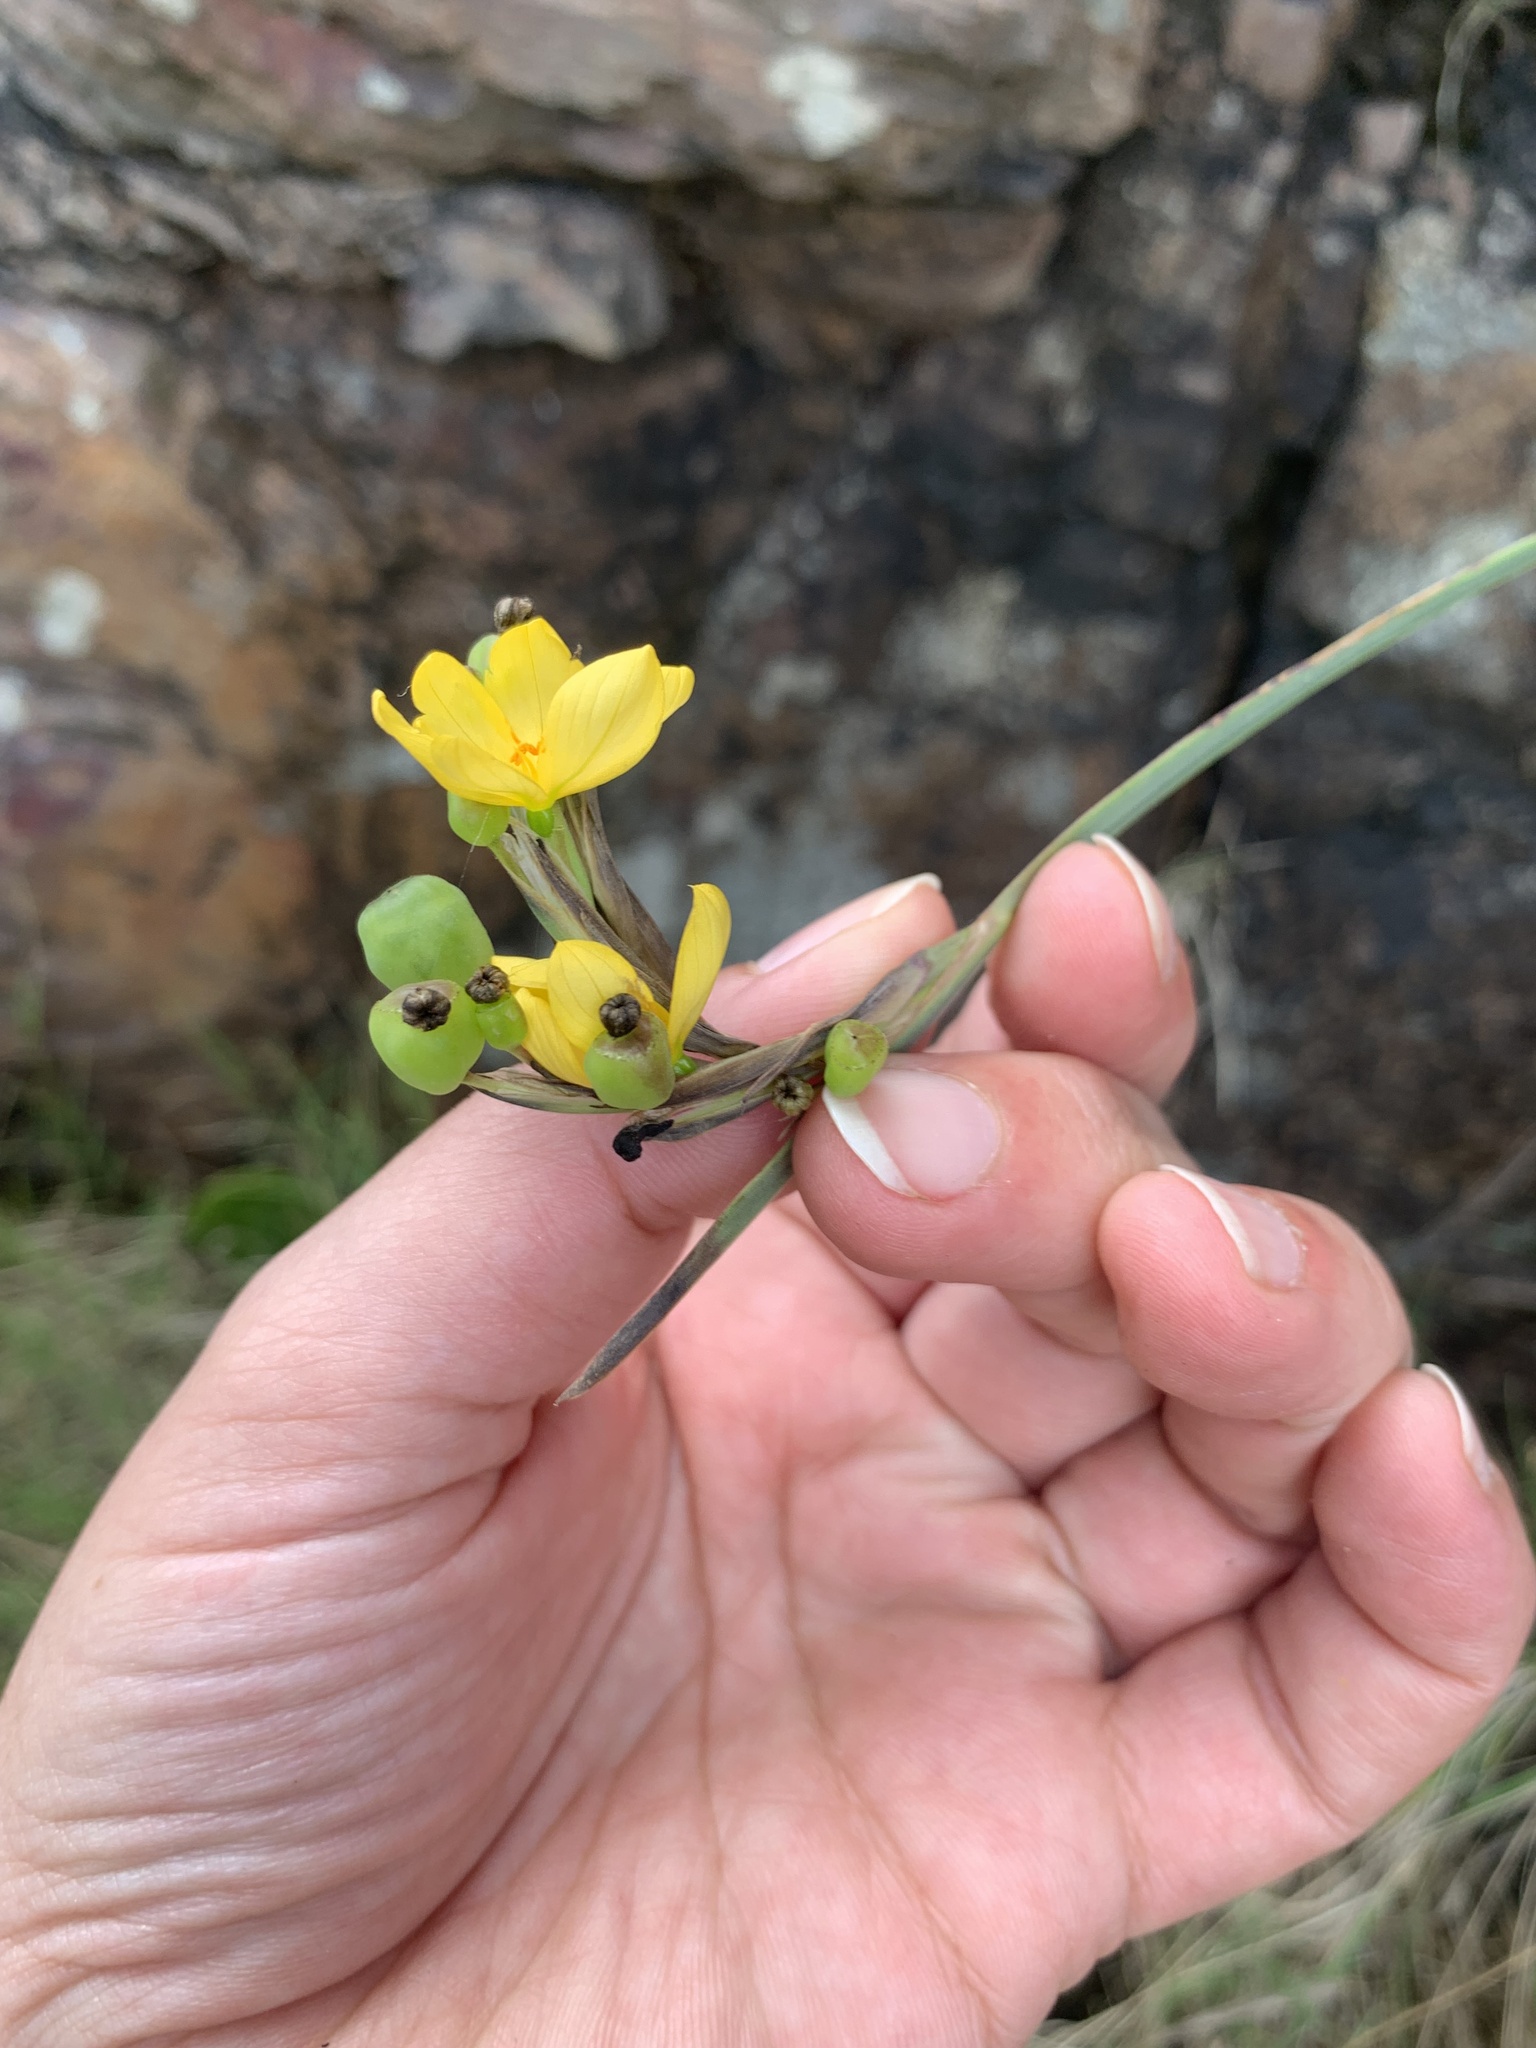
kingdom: Plantae
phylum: Tracheophyta
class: Liliopsida
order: Asparagales
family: Iridaceae
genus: Sisyrinchium
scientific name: Sisyrinchium palmifolium
